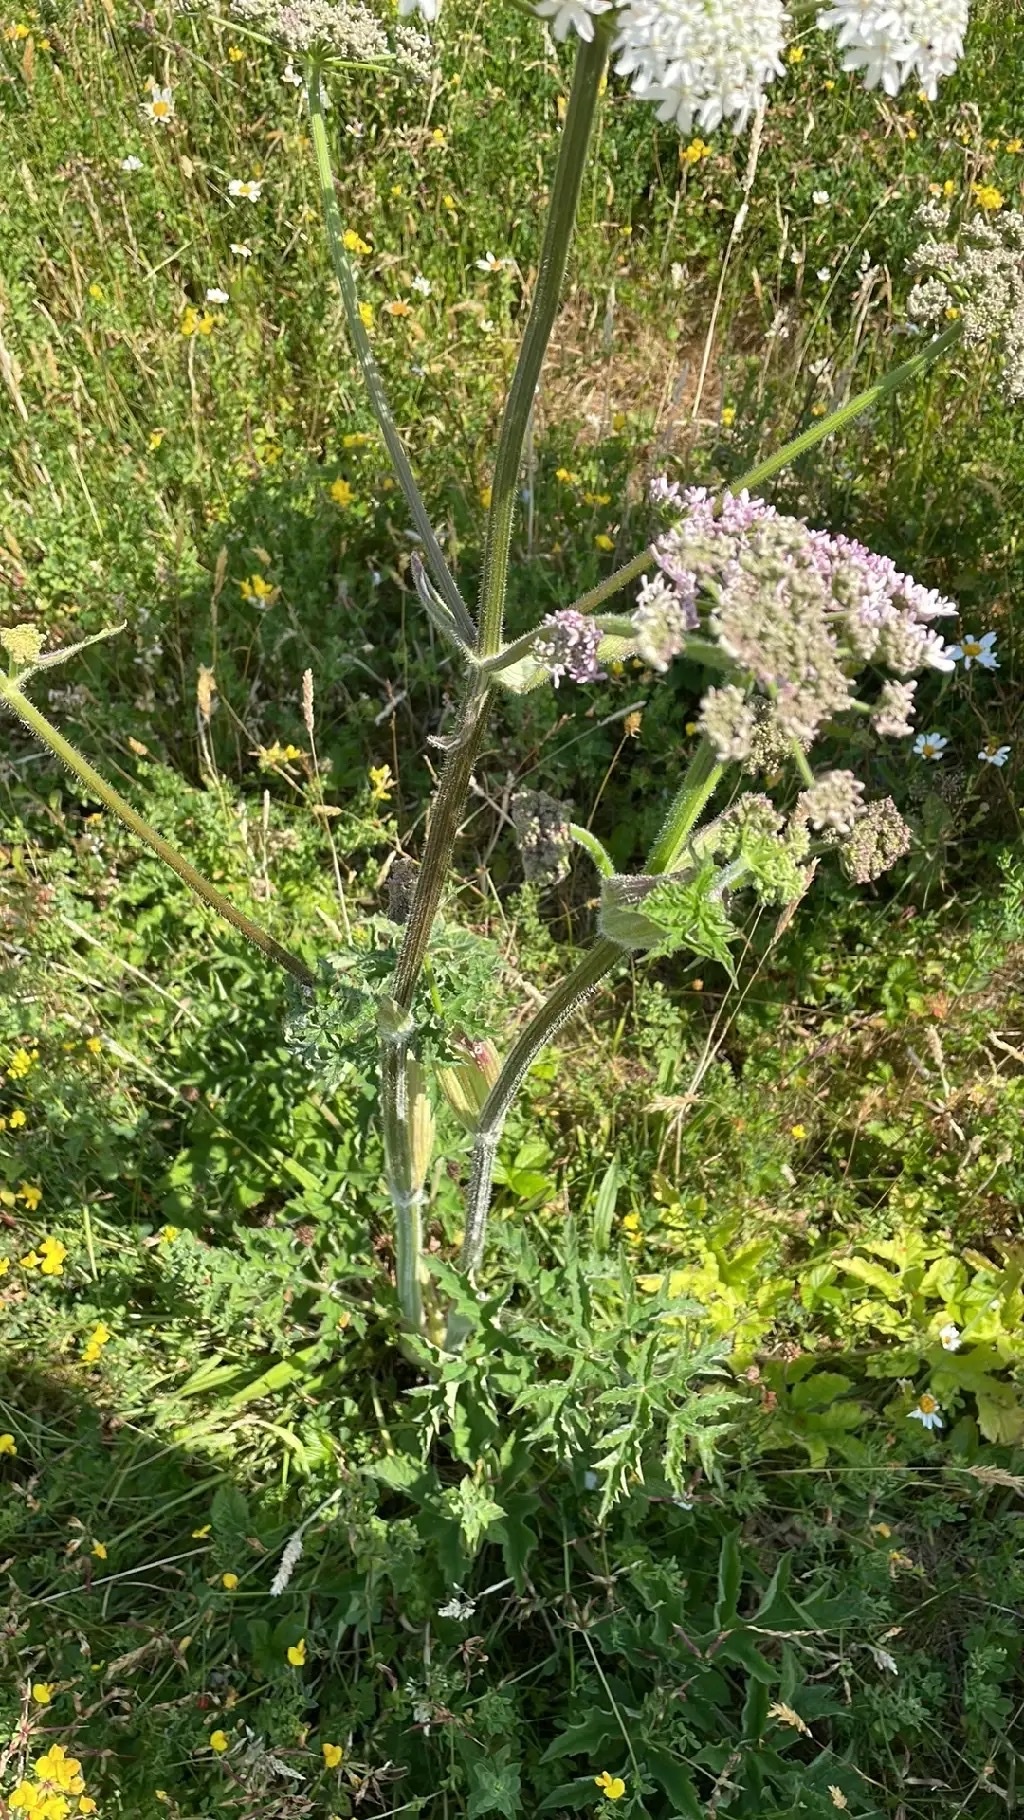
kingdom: Plantae
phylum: Tracheophyta
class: Magnoliopsida
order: Apiales
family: Apiaceae
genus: Heracleum
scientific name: Heracleum sphondylium
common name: Hogweed
